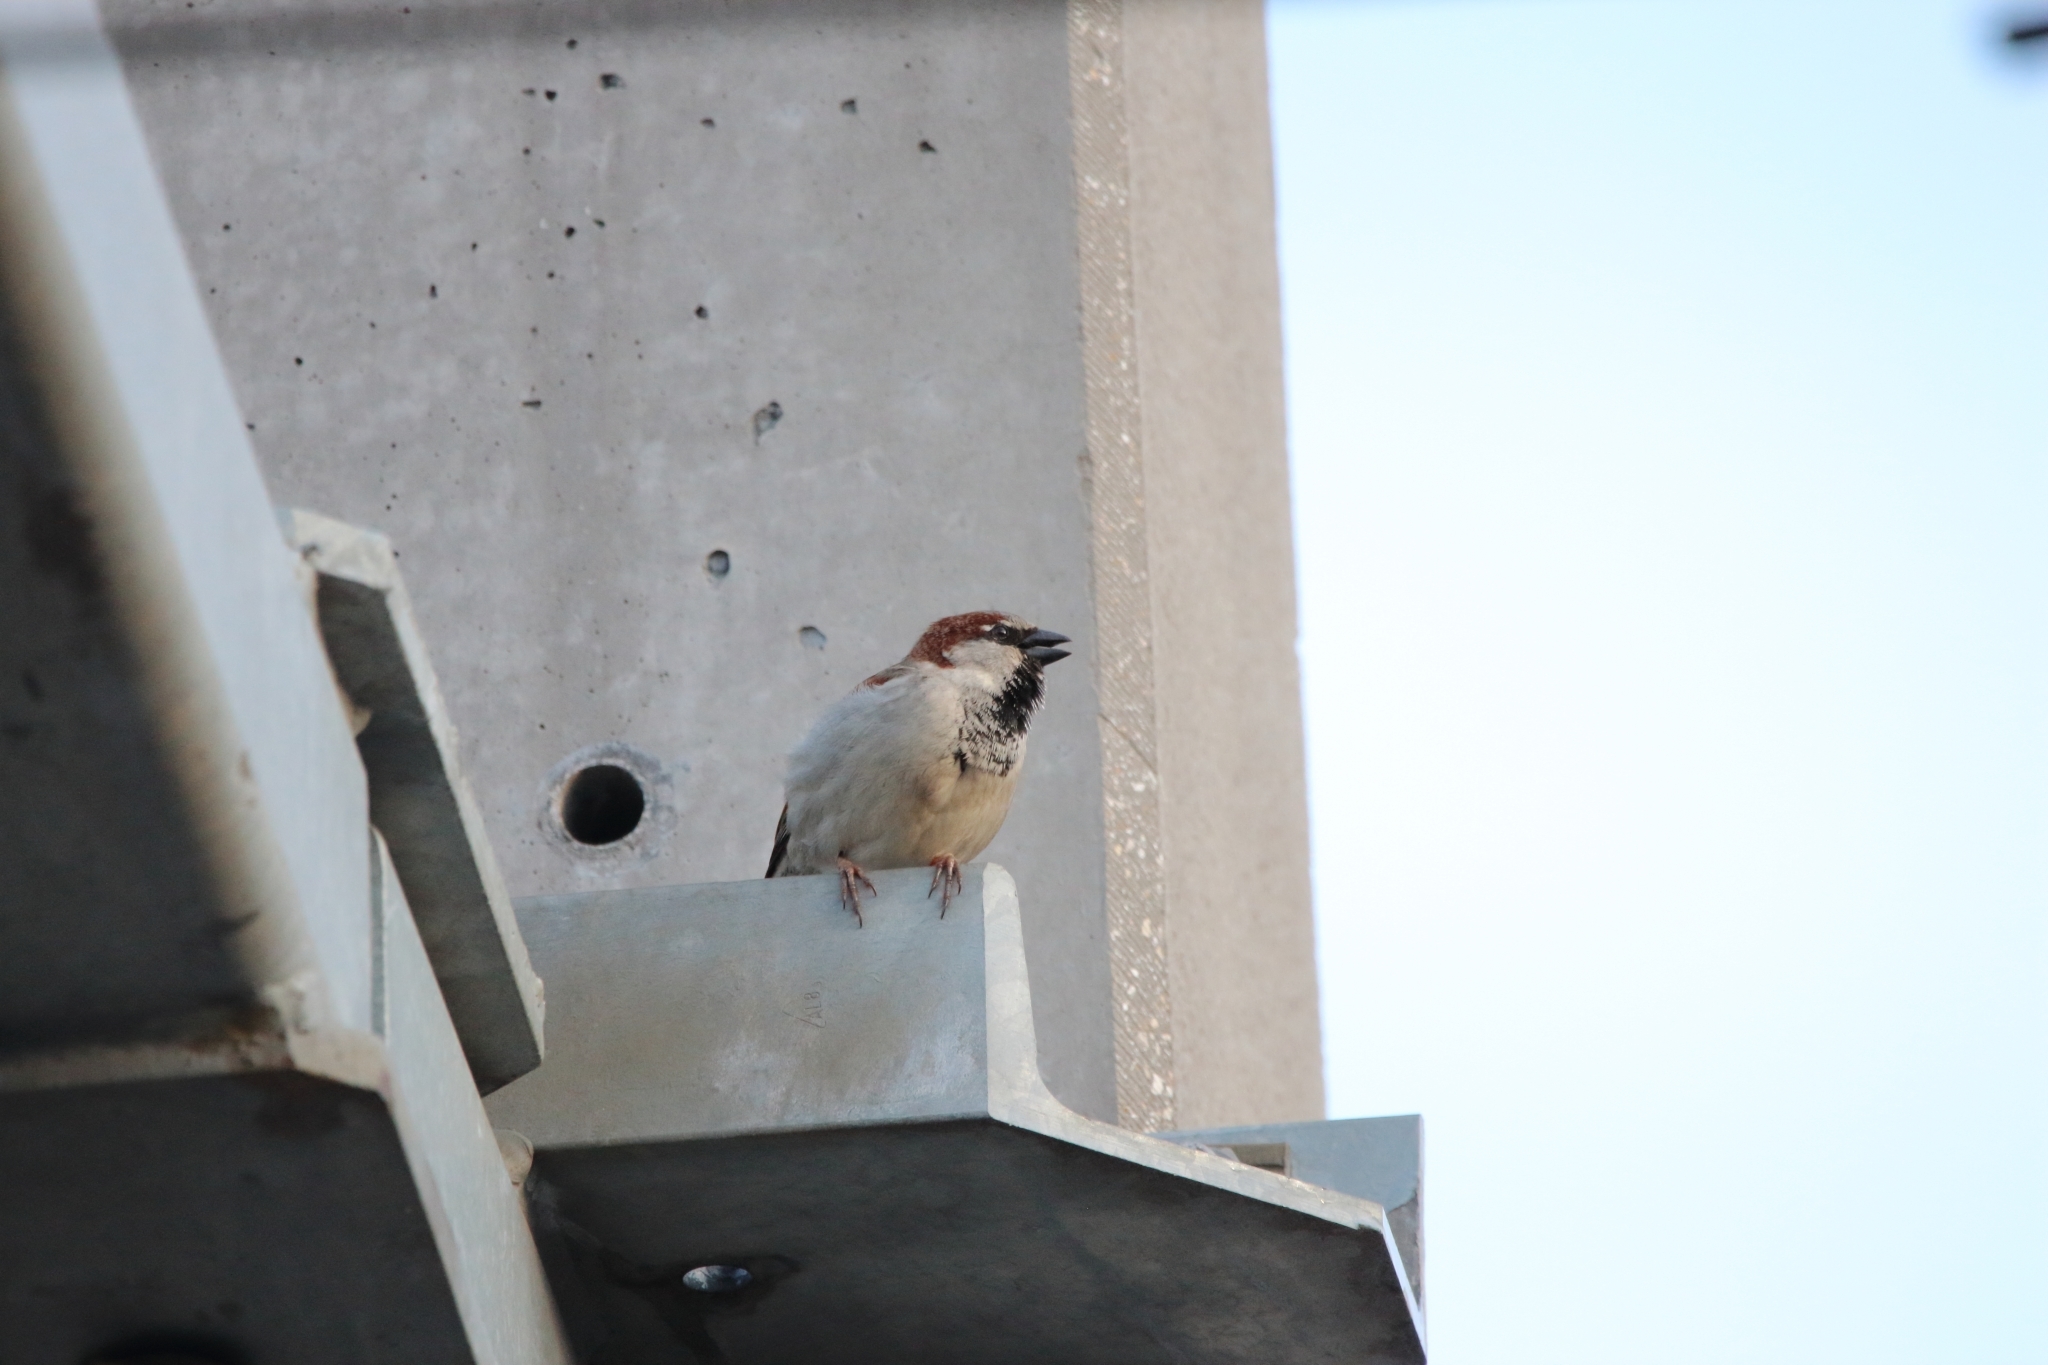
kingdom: Animalia
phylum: Chordata
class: Aves
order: Passeriformes
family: Passeridae
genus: Passer
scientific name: Passer domesticus
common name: House sparrow
